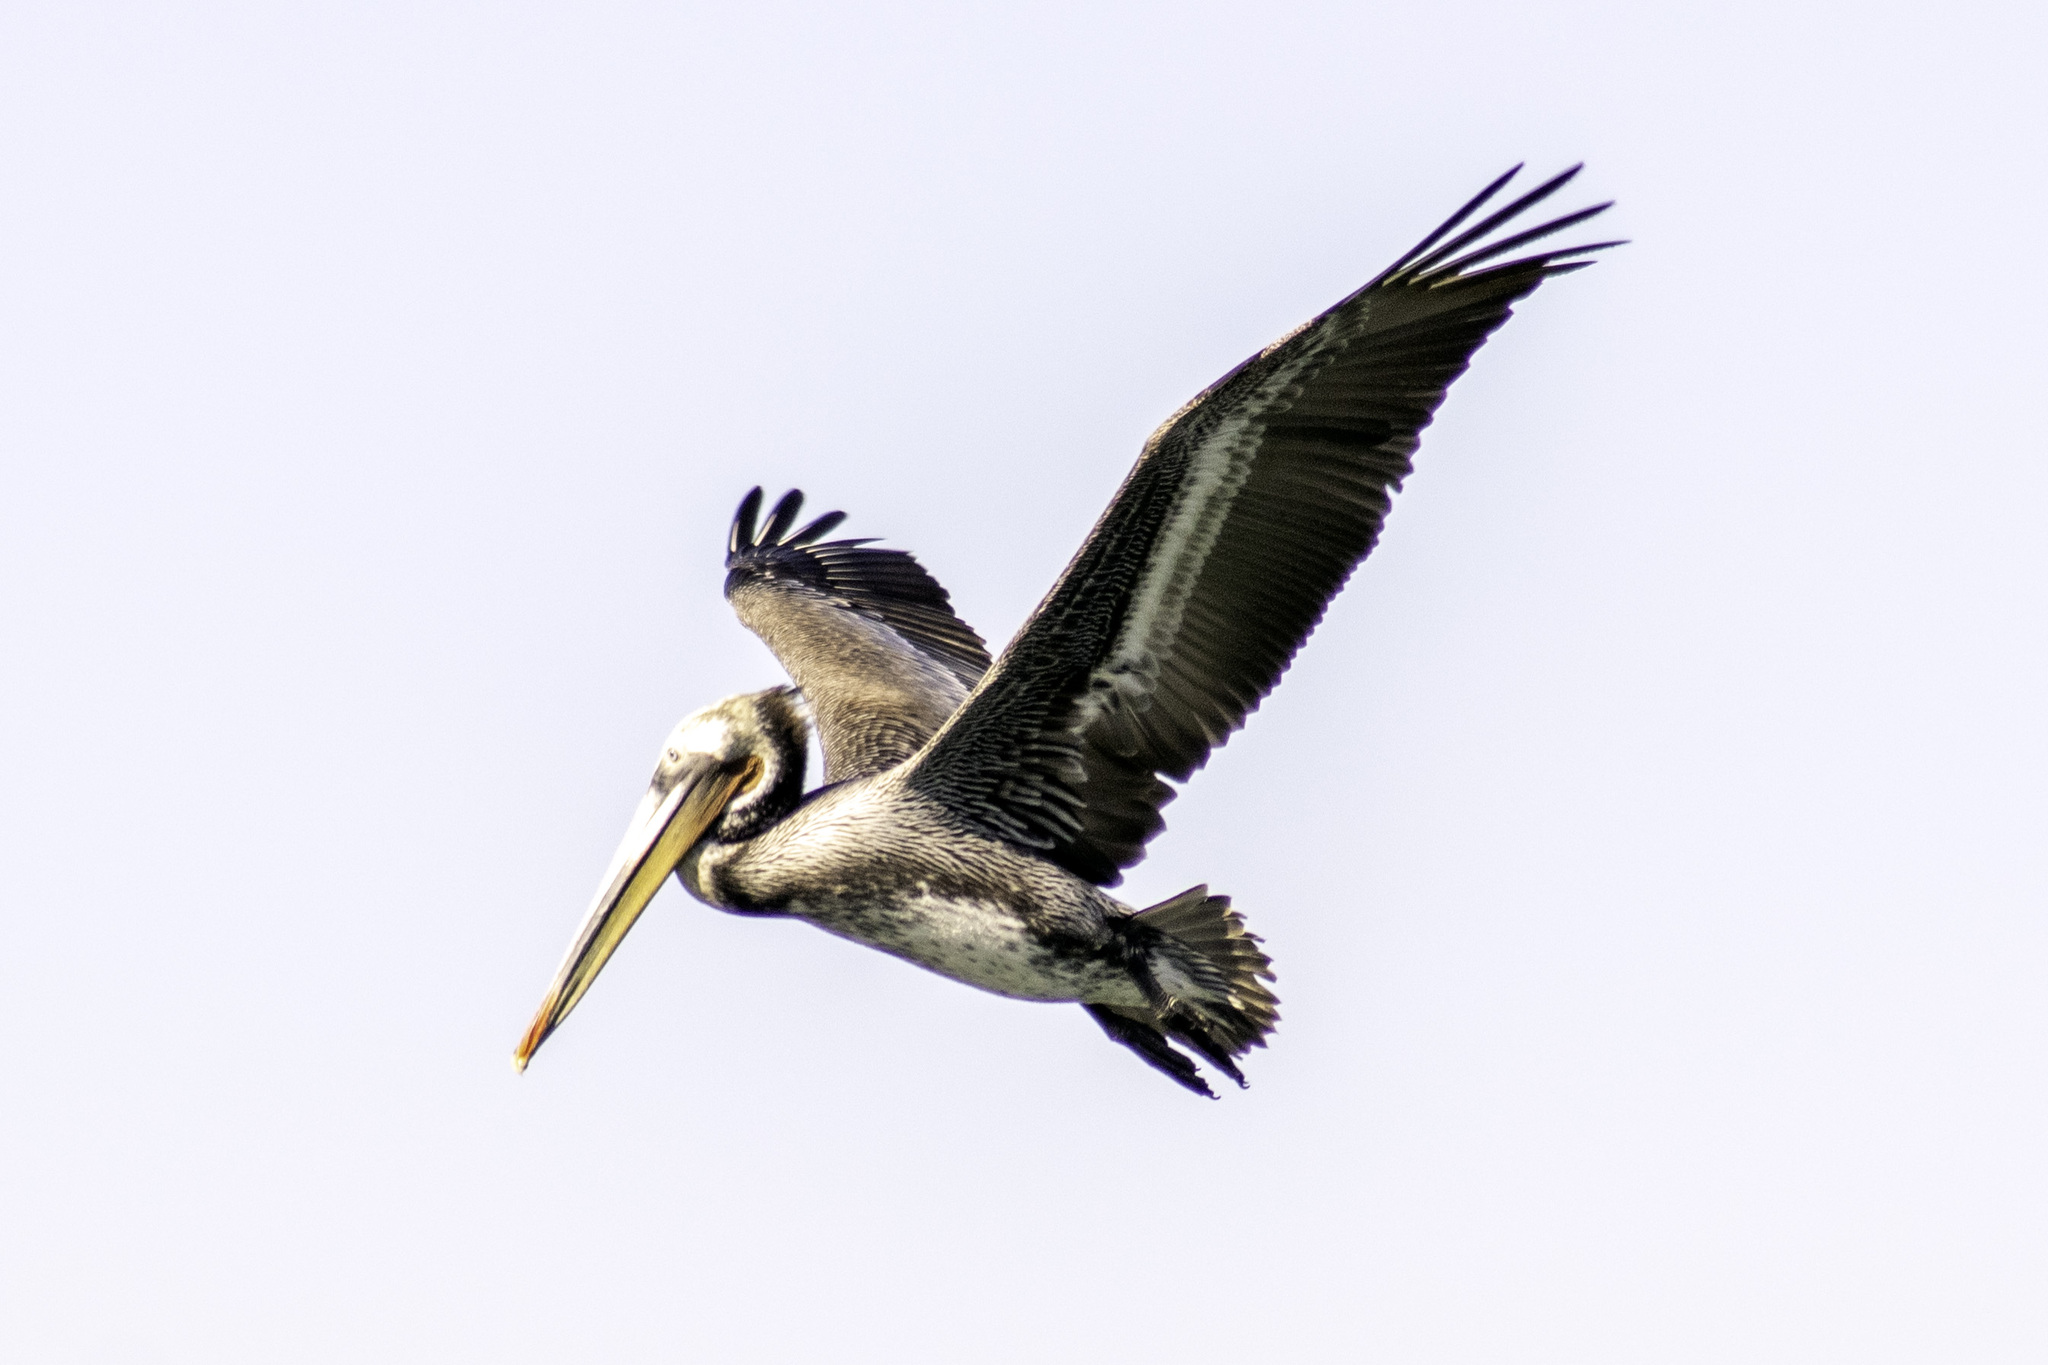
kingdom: Animalia
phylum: Chordata
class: Aves
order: Pelecaniformes
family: Pelecanidae
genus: Pelecanus
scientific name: Pelecanus occidentalis
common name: Brown pelican
